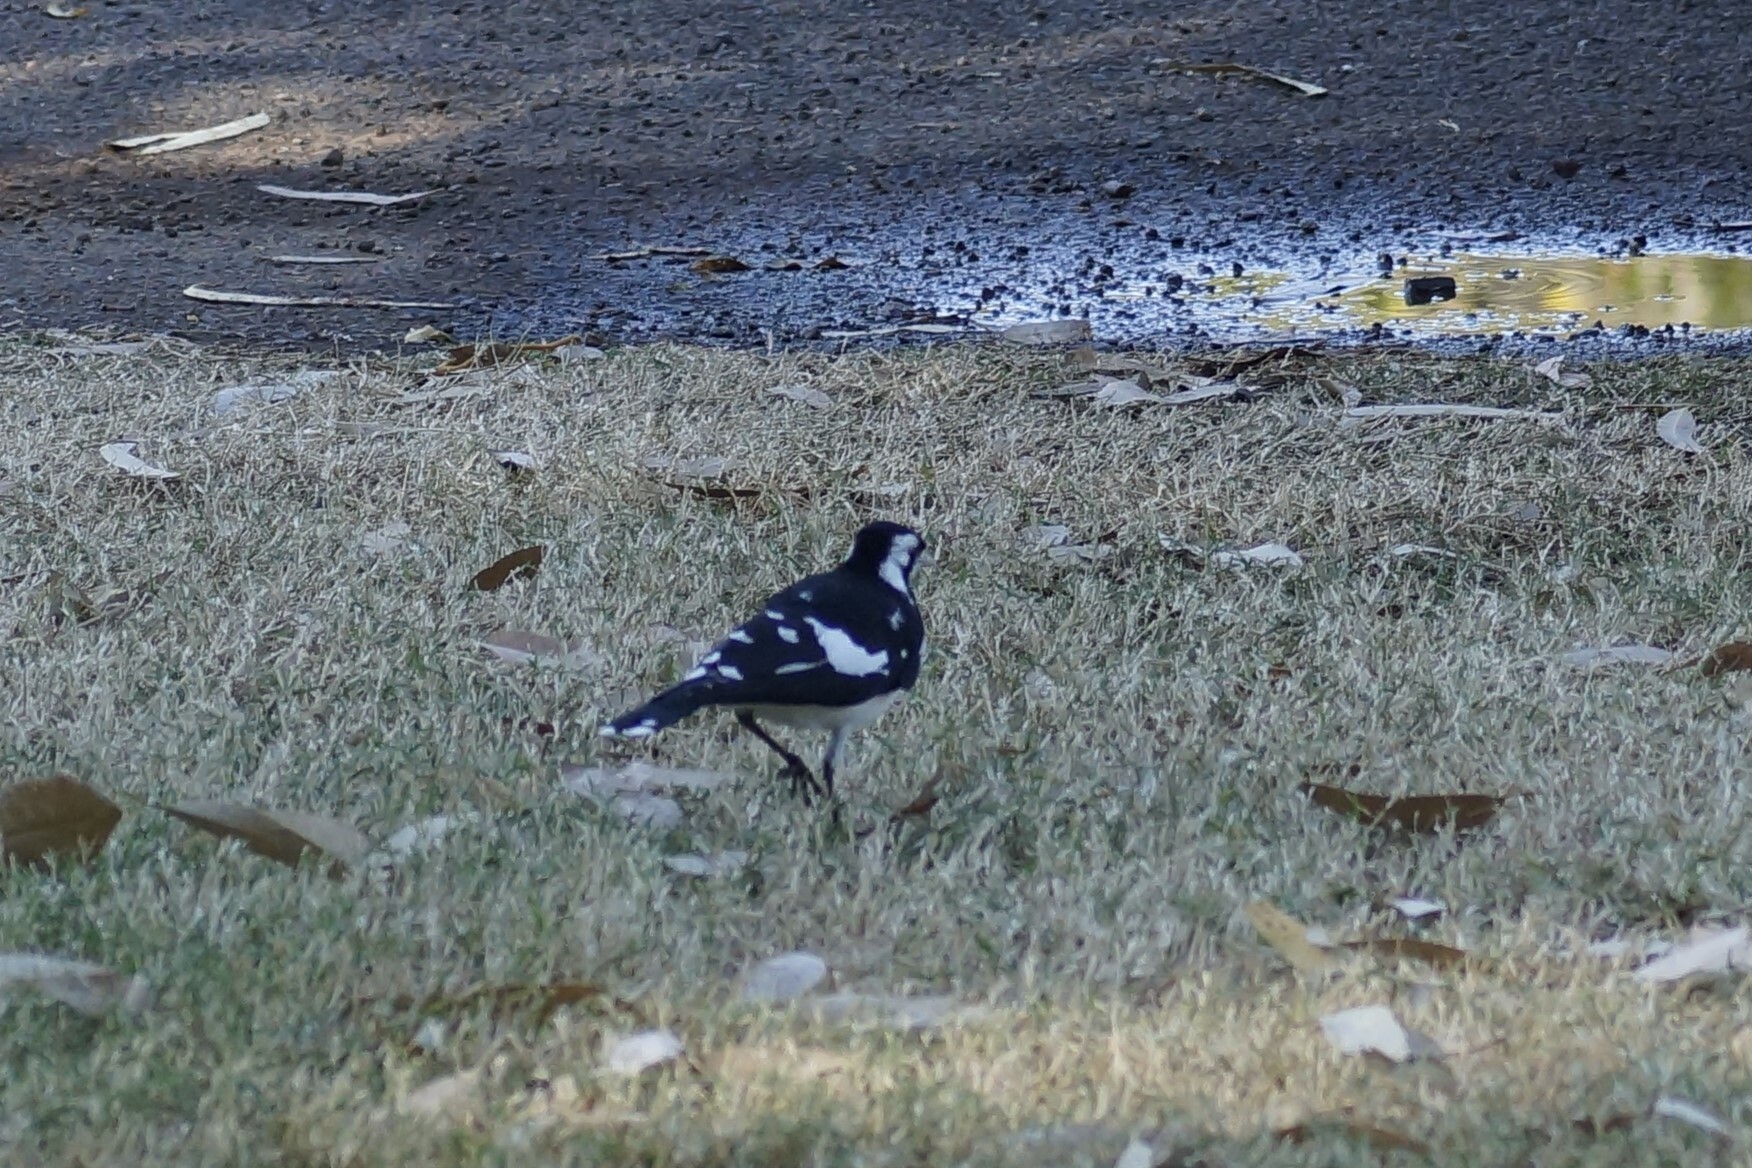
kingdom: Animalia
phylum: Chordata
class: Aves
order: Passeriformes
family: Monarchidae
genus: Grallina
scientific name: Grallina cyanoleuca
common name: Magpie-lark
